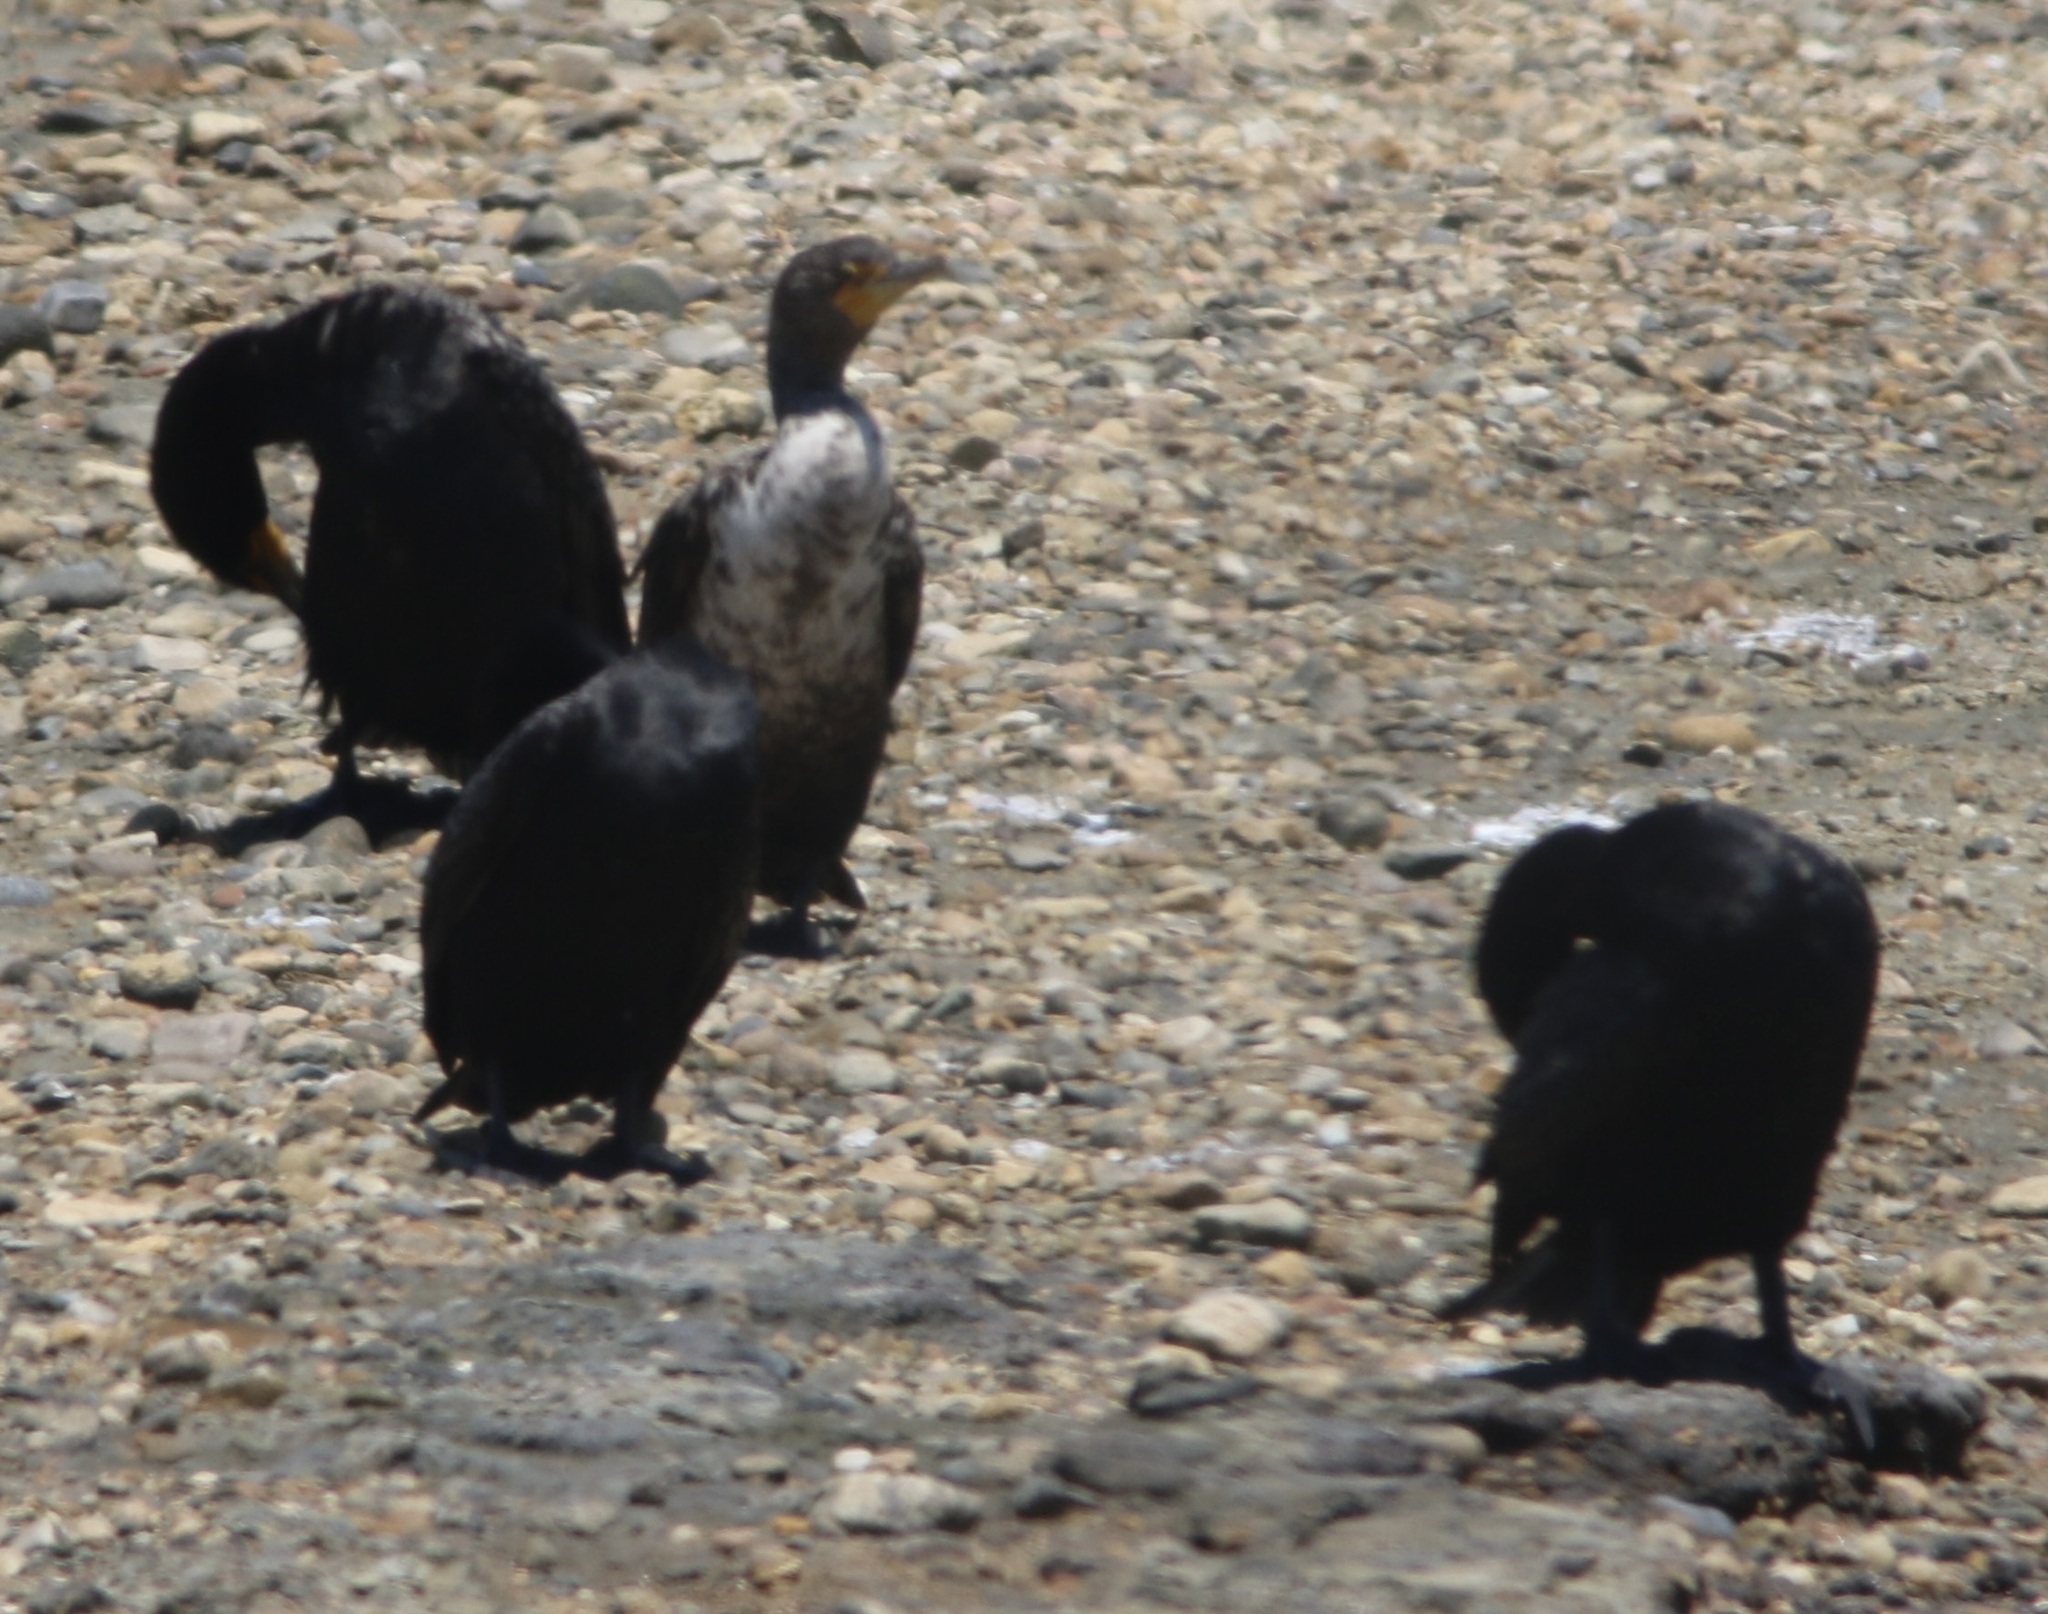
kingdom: Animalia
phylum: Chordata
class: Aves
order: Suliformes
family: Phalacrocoracidae
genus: Phalacrocorax
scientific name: Phalacrocorax auritus
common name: Double-crested cormorant
